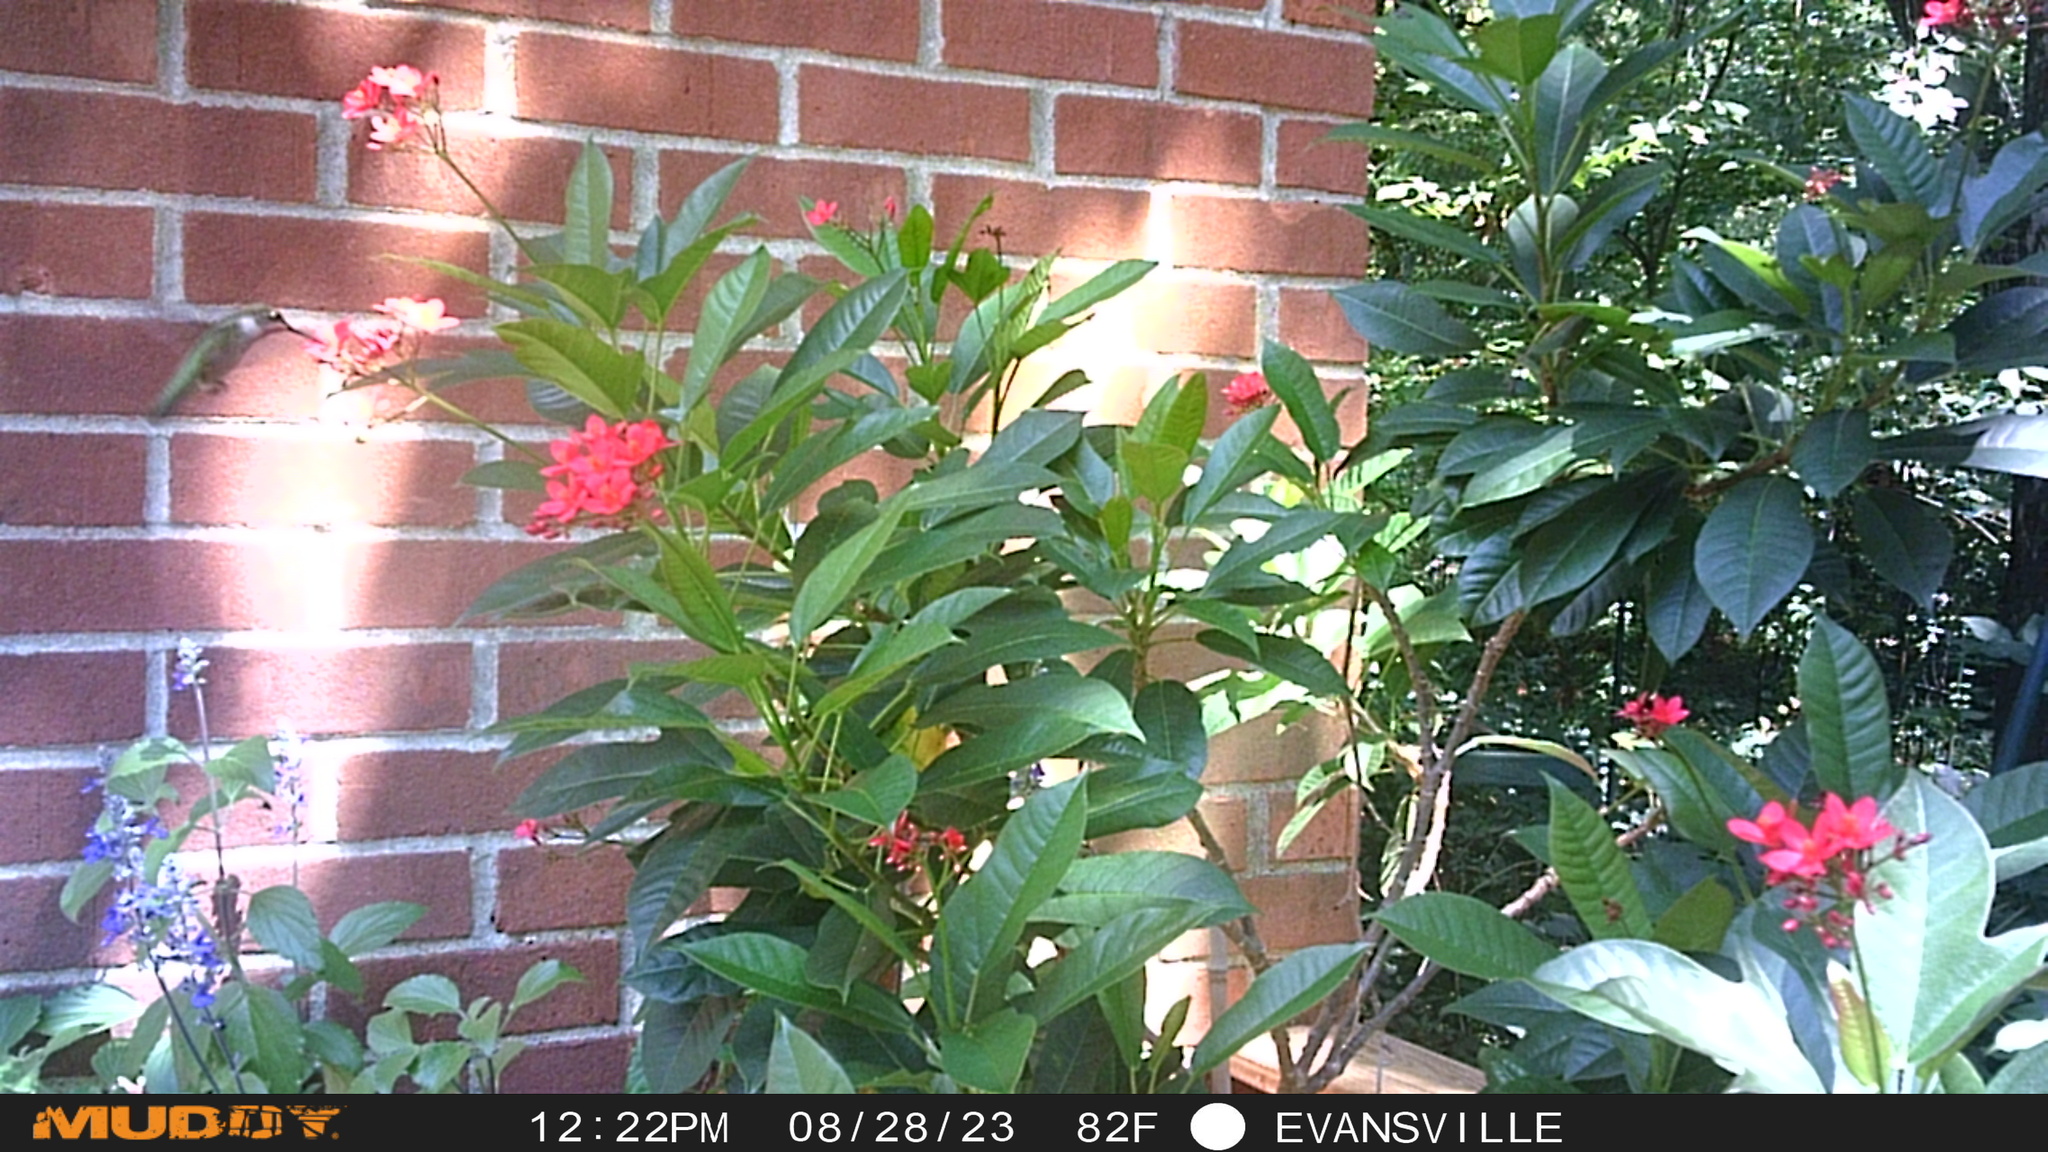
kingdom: Animalia
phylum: Chordata
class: Aves
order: Apodiformes
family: Trochilidae
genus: Archilochus
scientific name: Archilochus colubris
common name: Ruby-throated hummingbird
